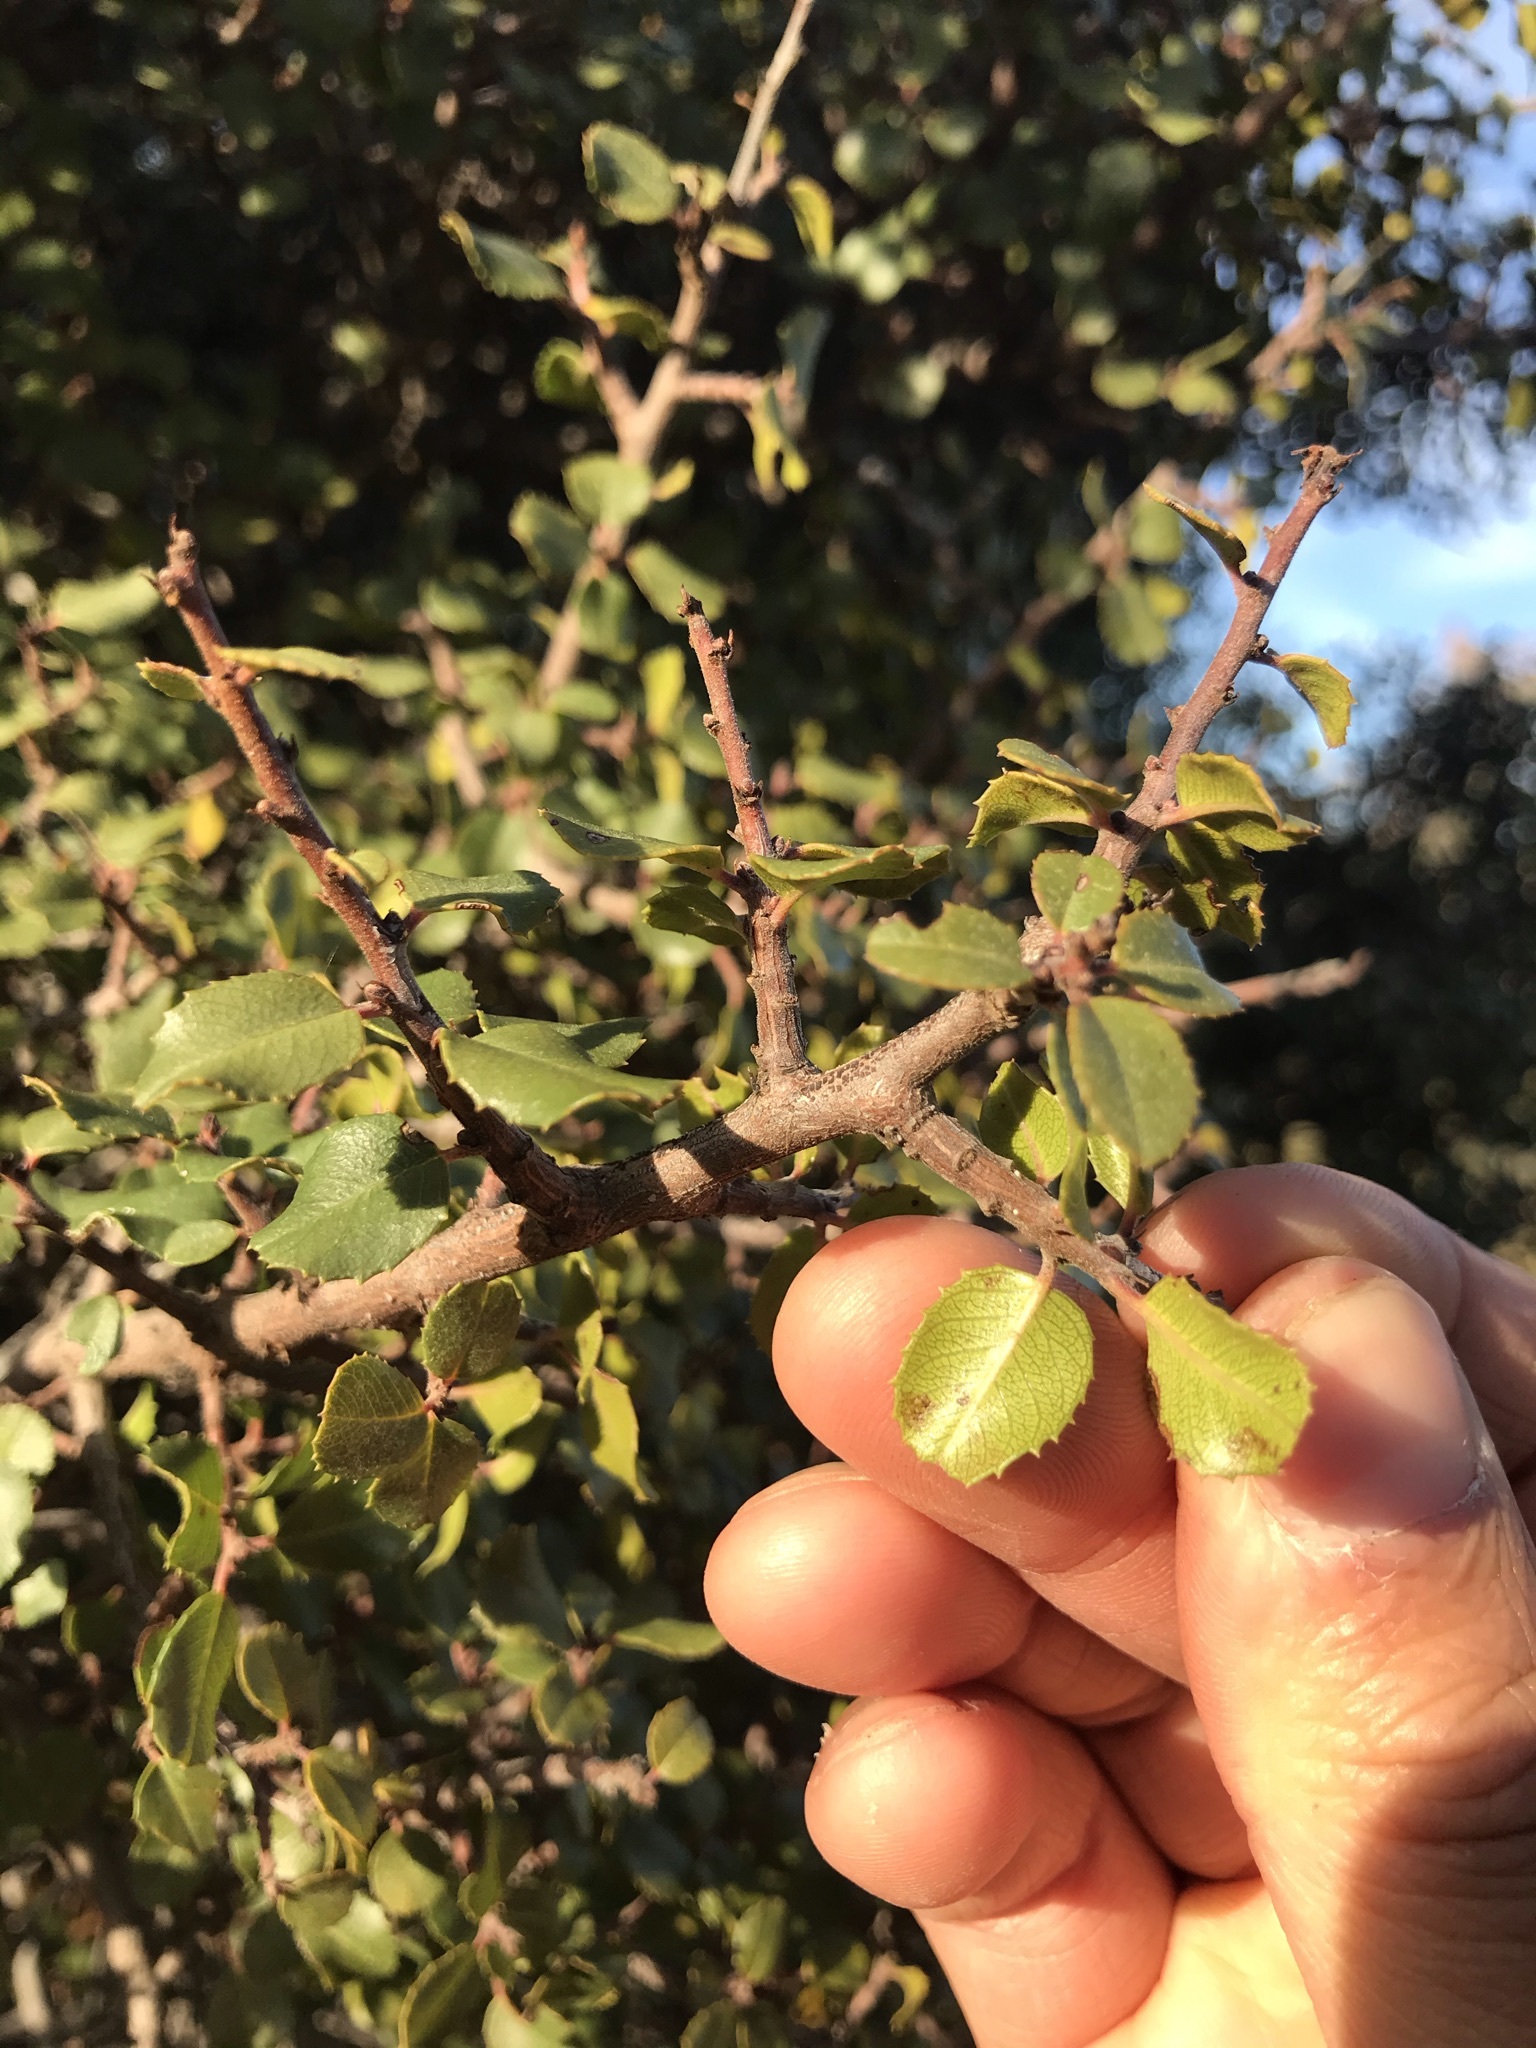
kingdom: Plantae
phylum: Tracheophyta
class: Magnoliopsida
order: Rosales
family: Rhamnaceae
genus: Endotropis
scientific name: Endotropis crocea
